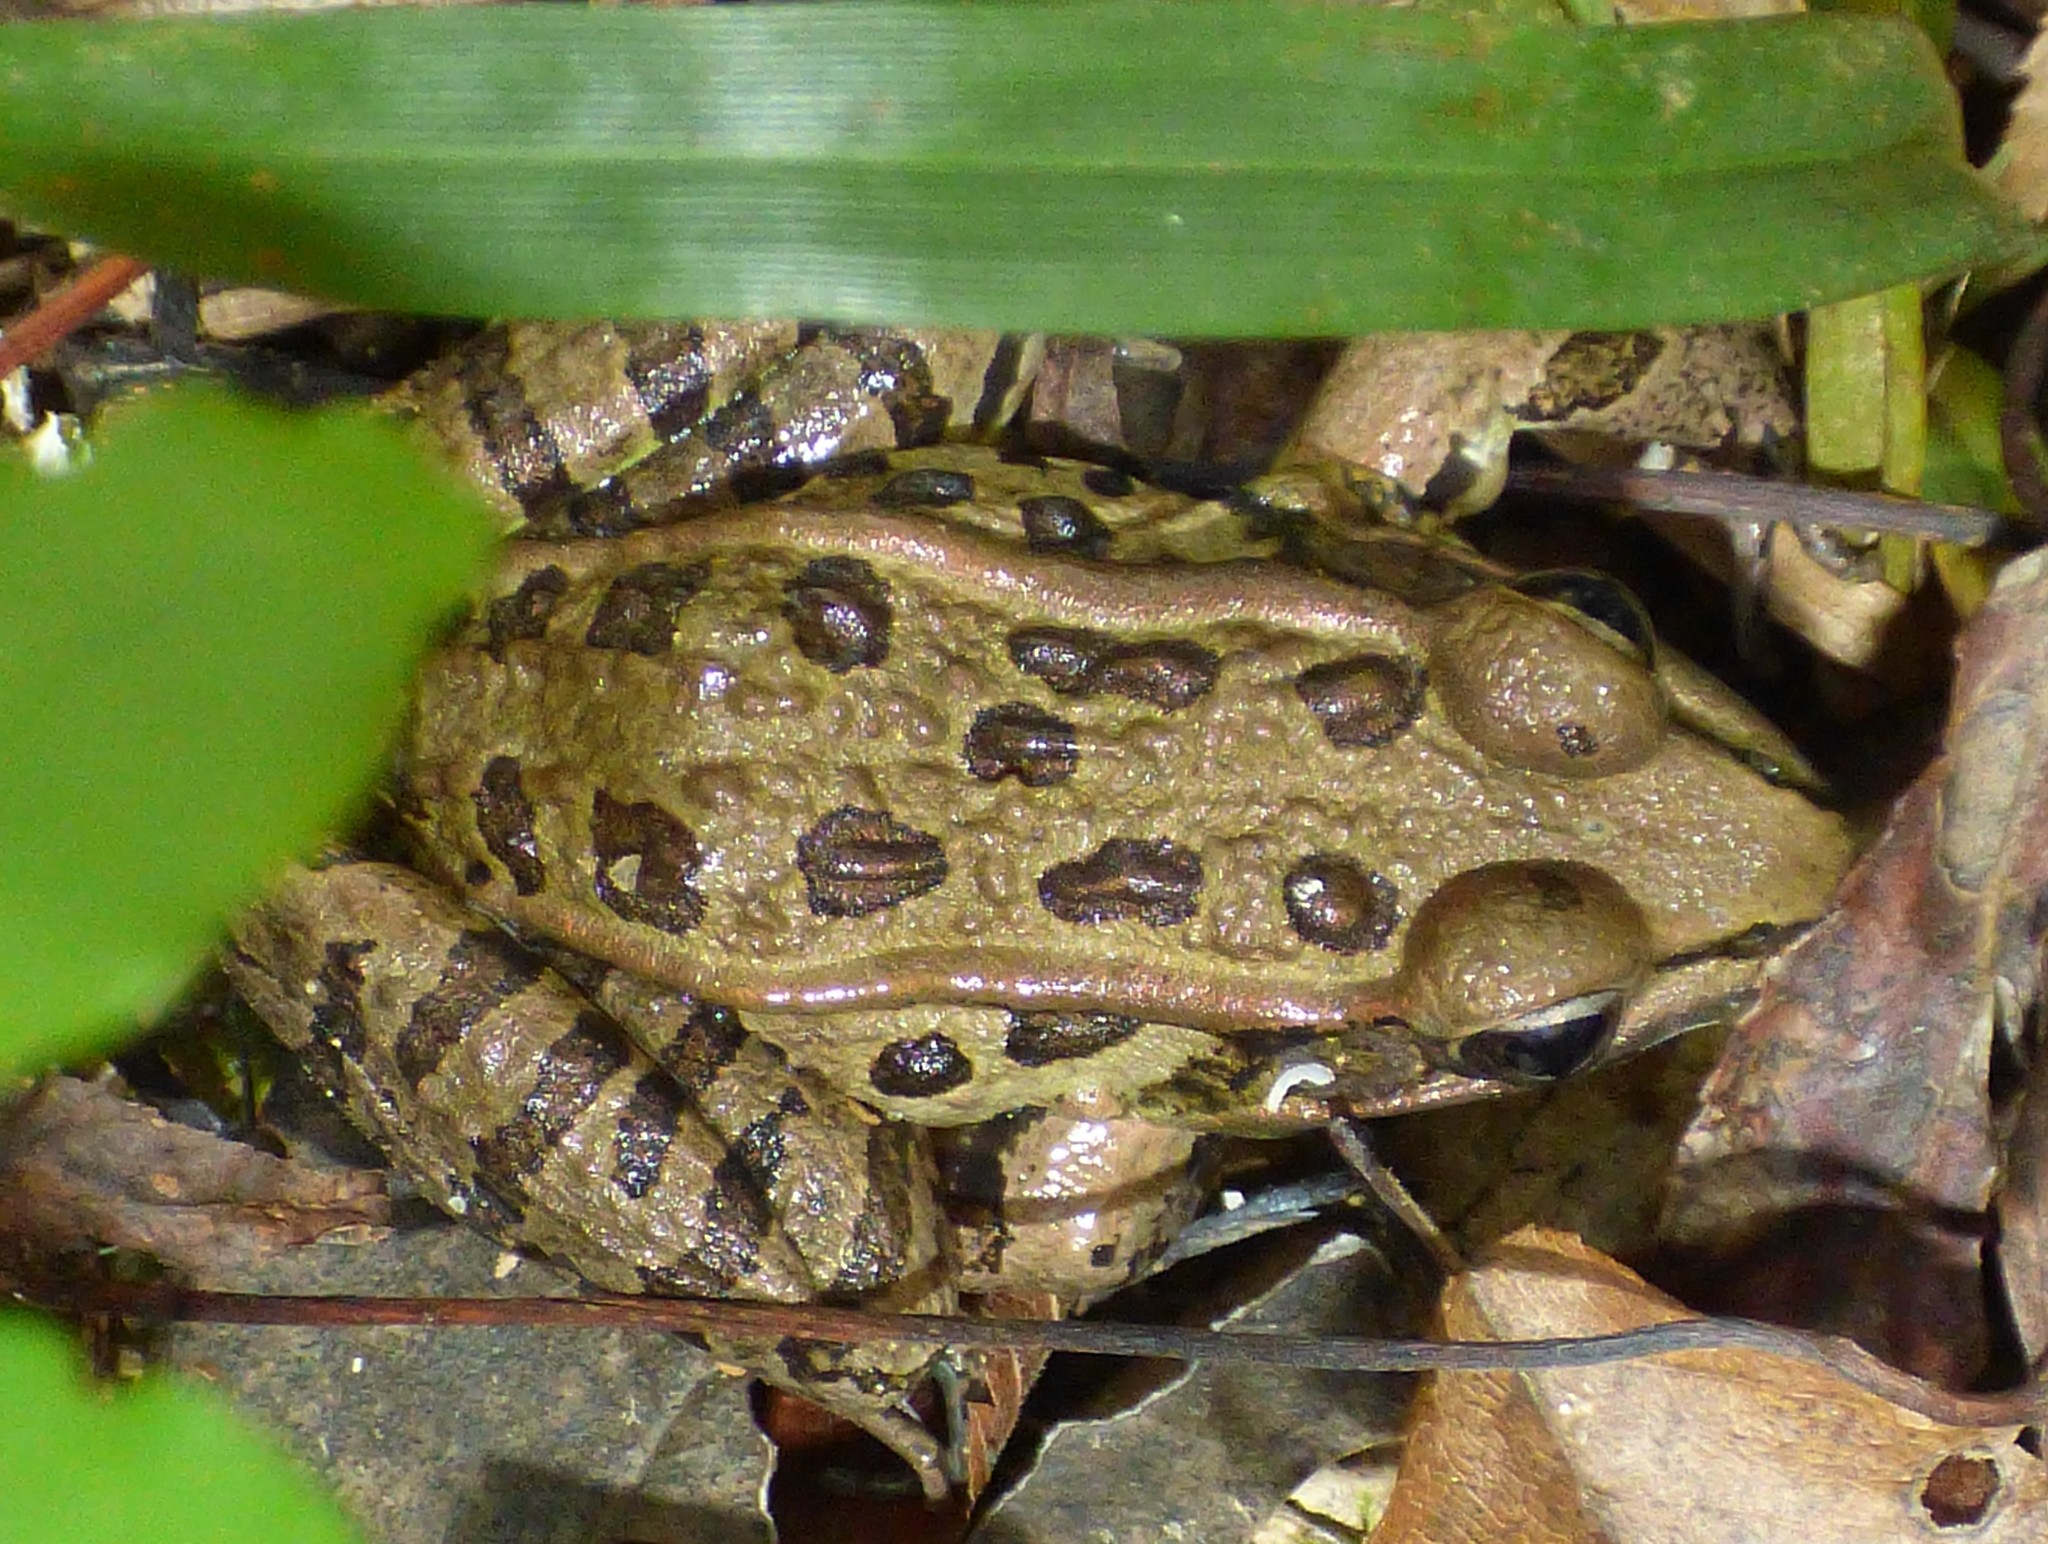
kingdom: Animalia
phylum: Chordata
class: Amphibia
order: Anura
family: Ranidae
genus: Lithobates
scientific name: Lithobates sphenocephalus
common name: Southern leopard frog
